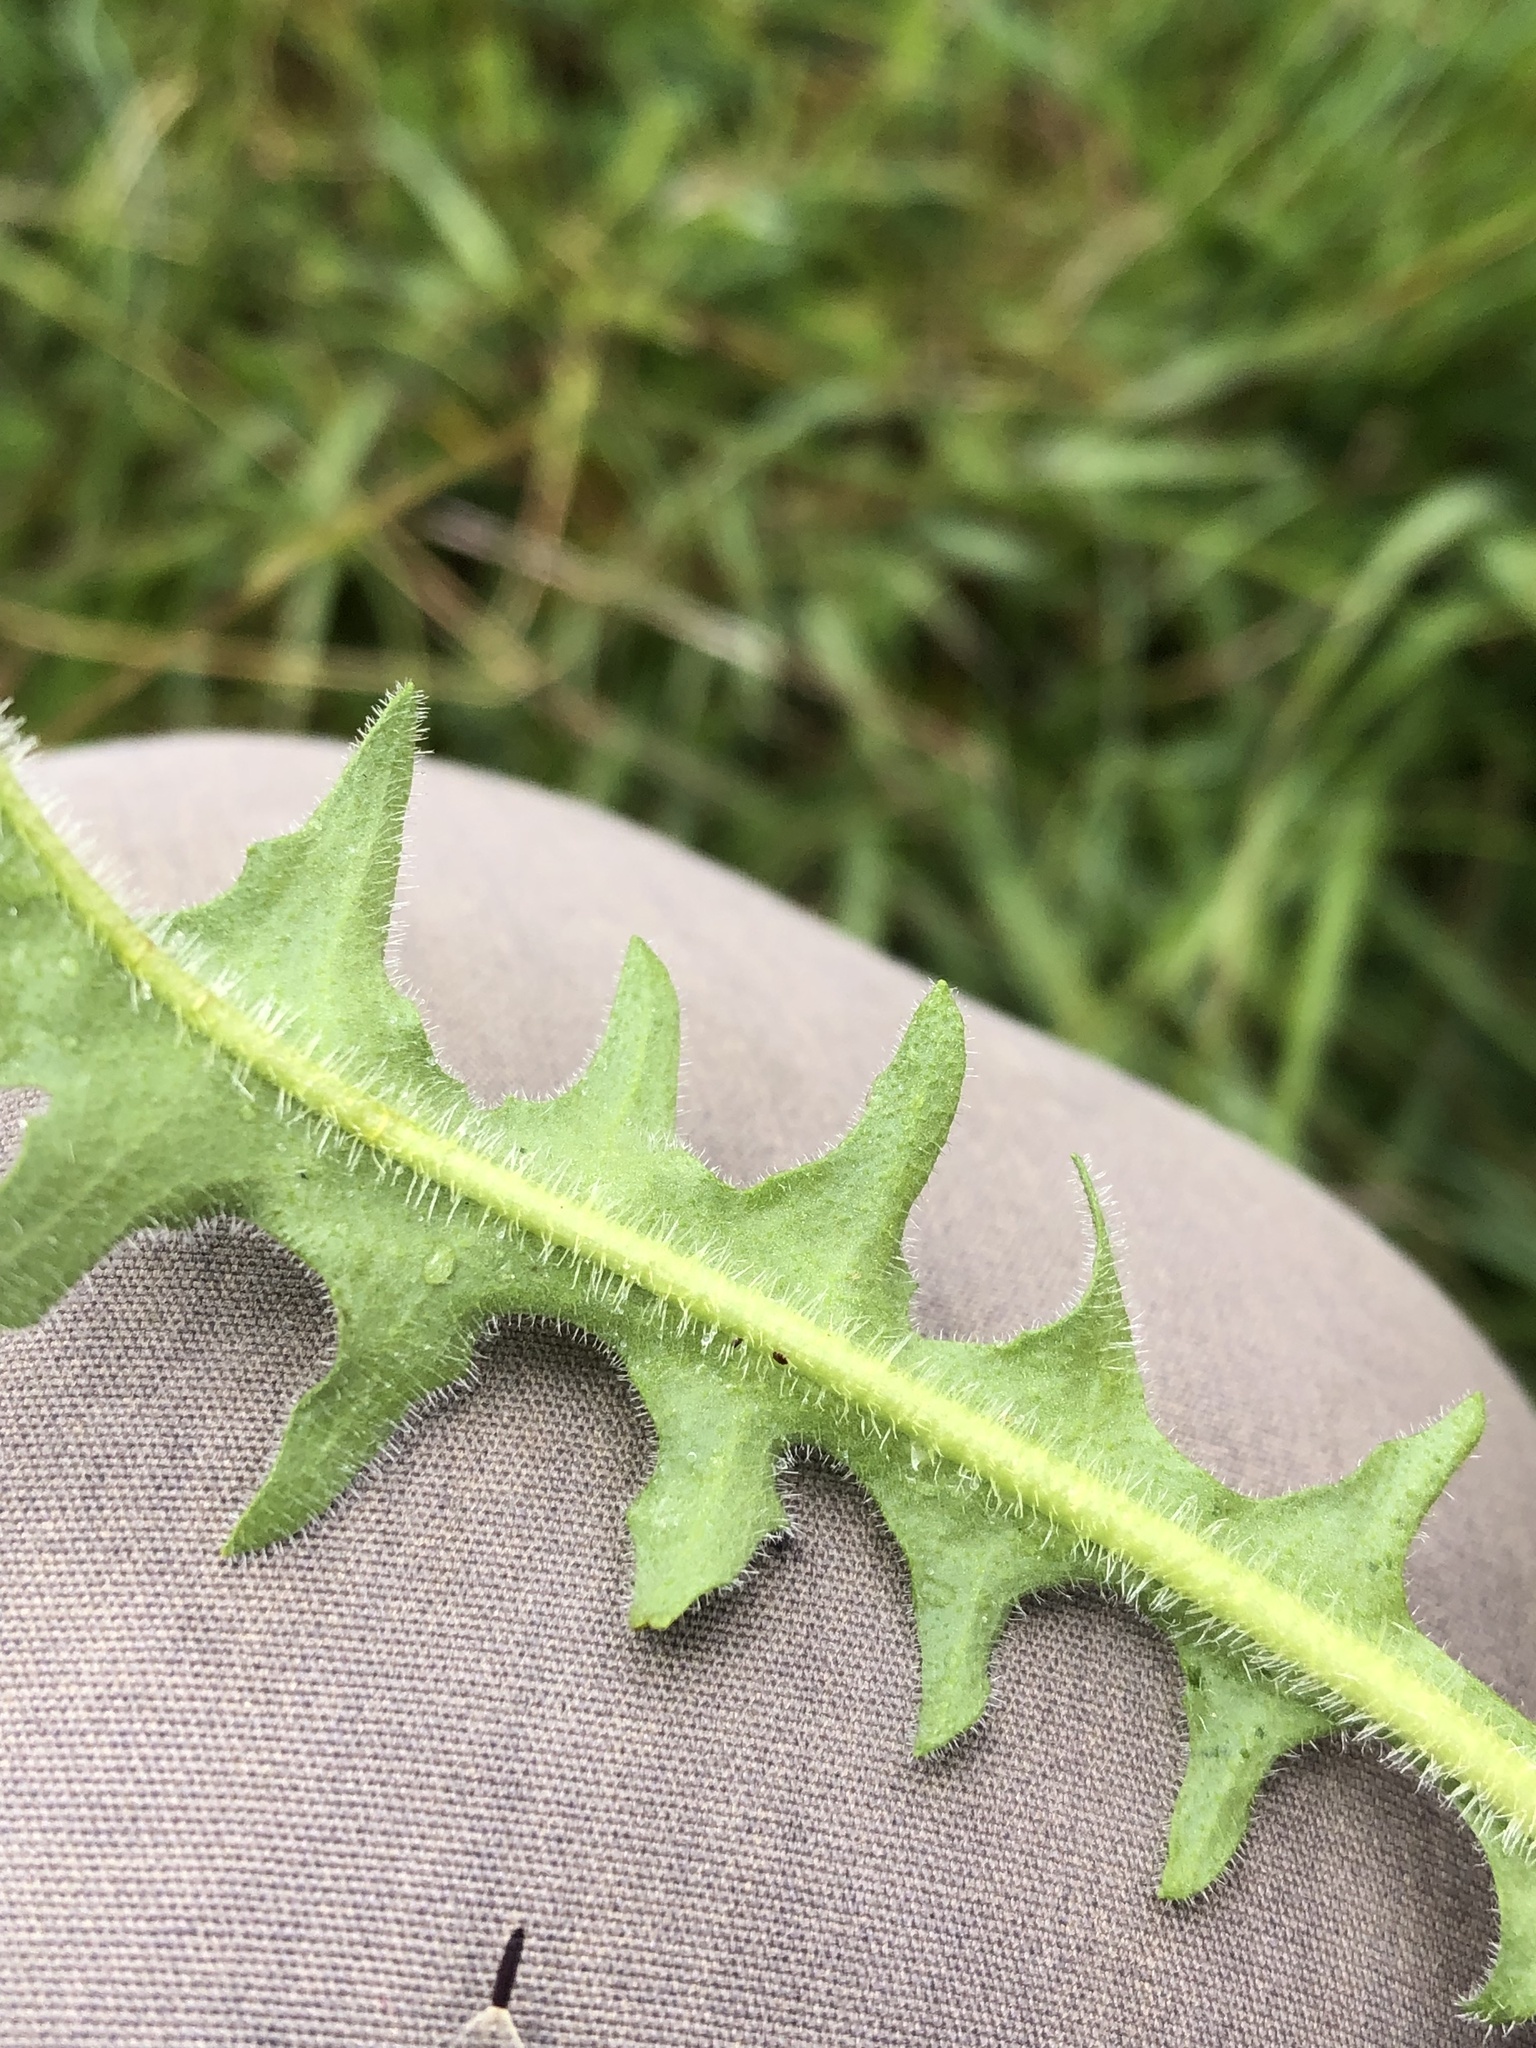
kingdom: Plantae
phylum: Tracheophyta
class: Magnoliopsida
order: Asterales
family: Asteraceae
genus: Leontodon
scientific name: Leontodon hispidus
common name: Rough hawkbit
